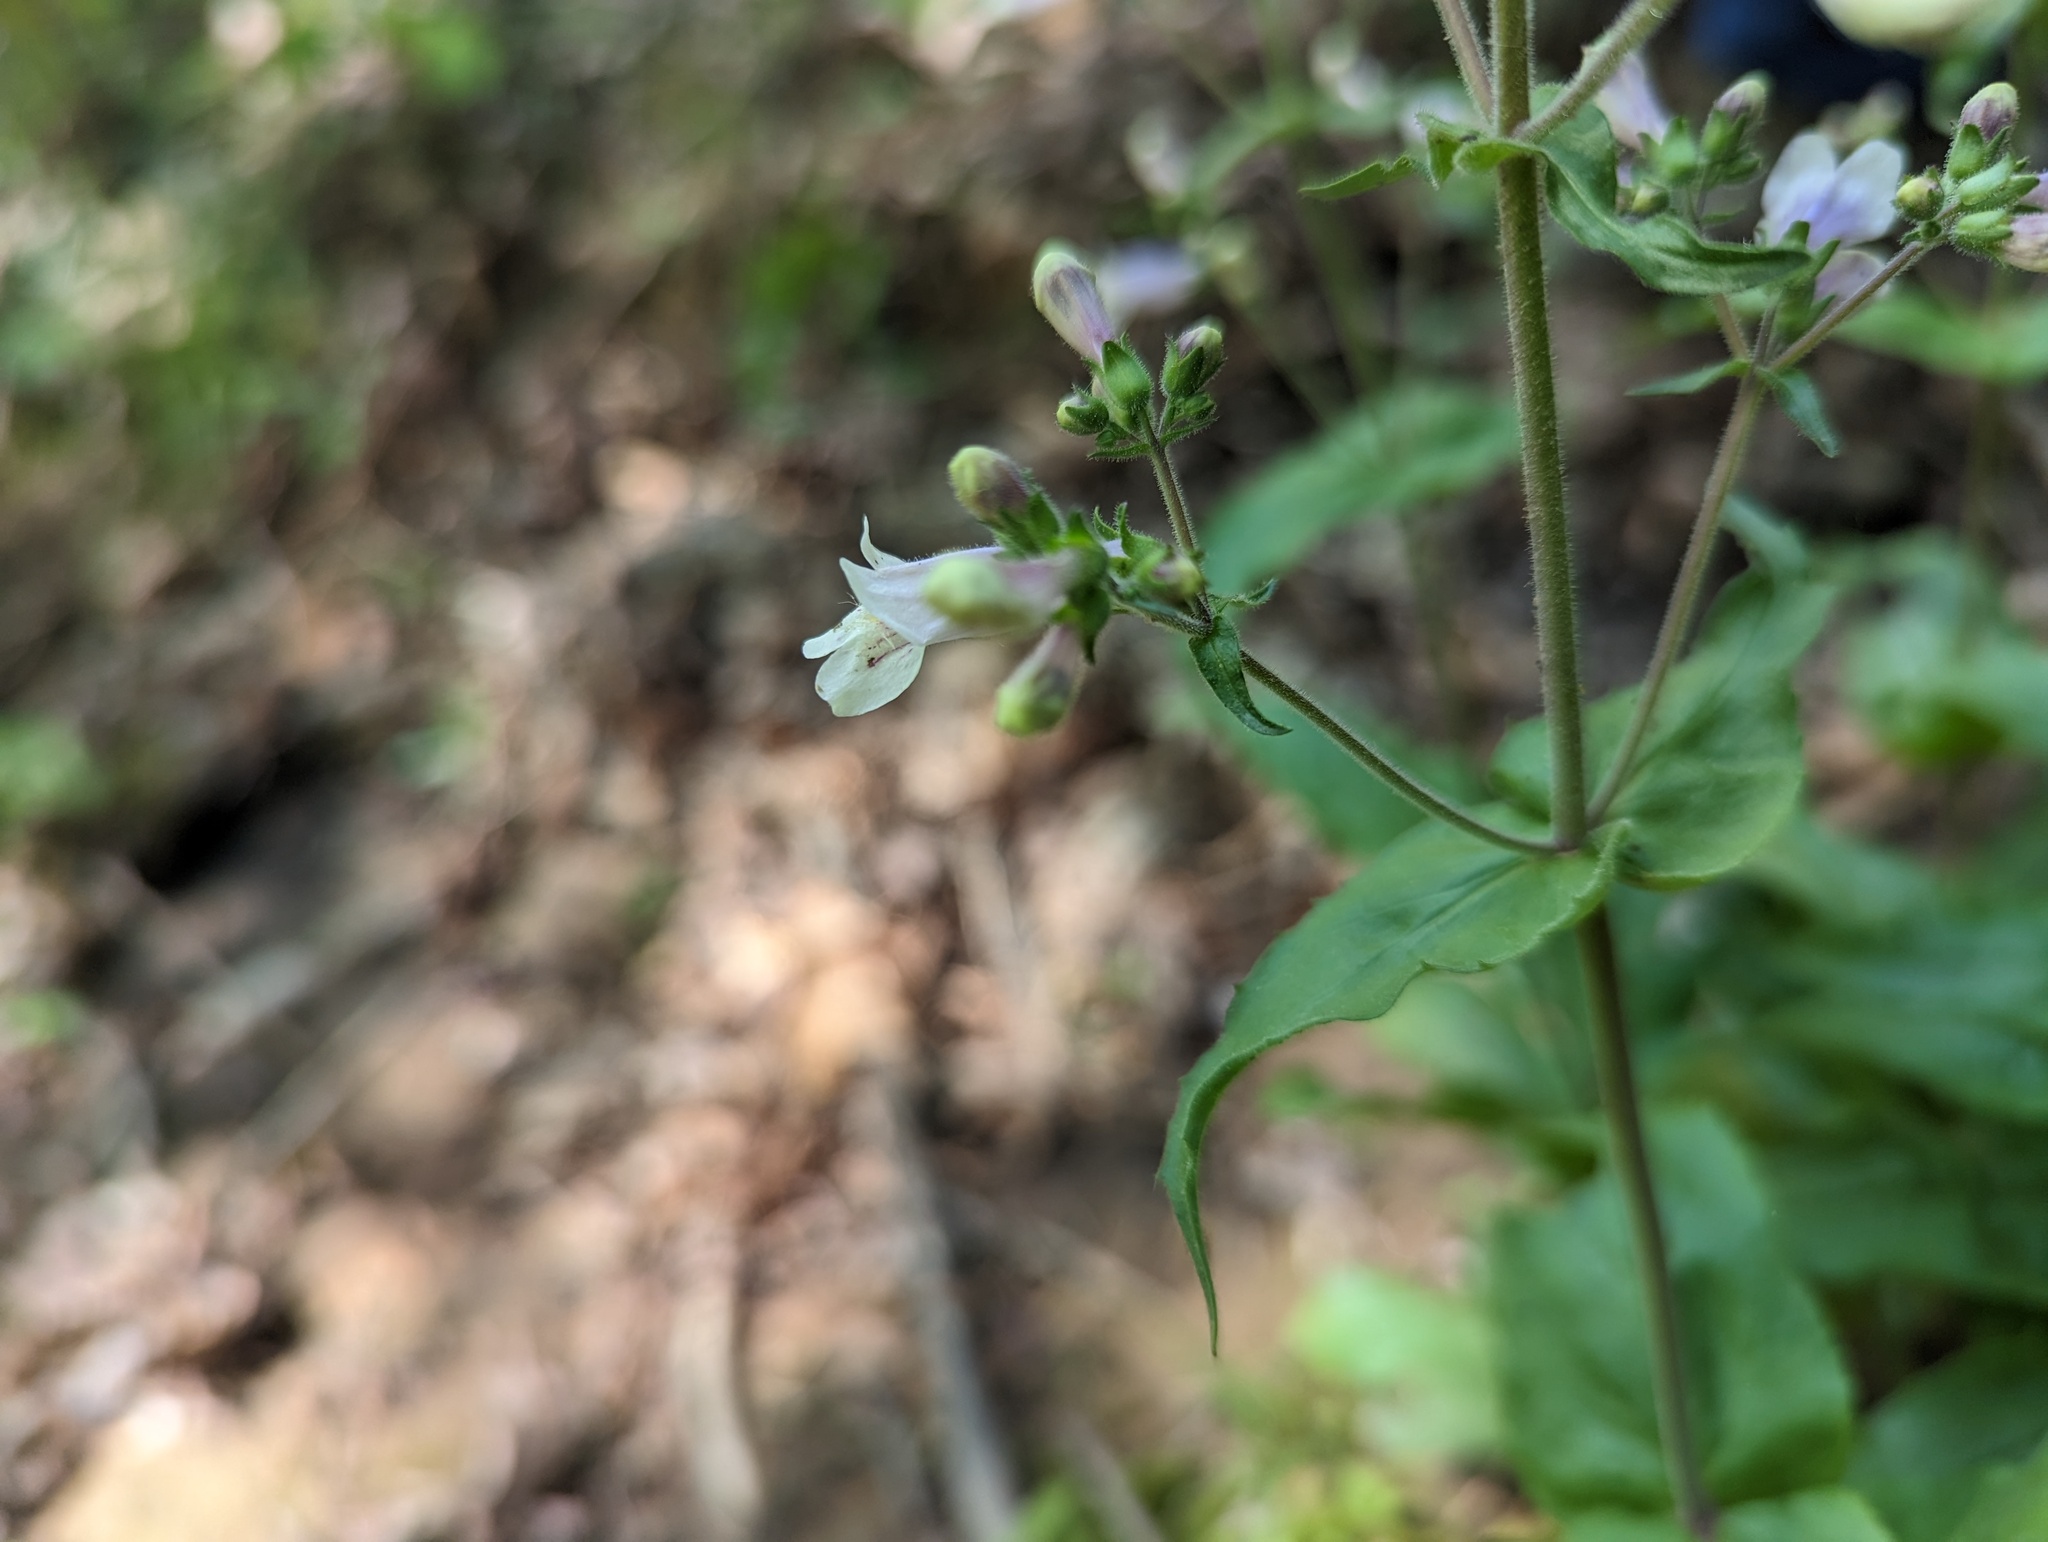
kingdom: Plantae
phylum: Tracheophyta
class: Magnoliopsida
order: Lamiales
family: Plantaginaceae
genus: Penstemon
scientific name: Penstemon pallidus
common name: Pale beardtongue
